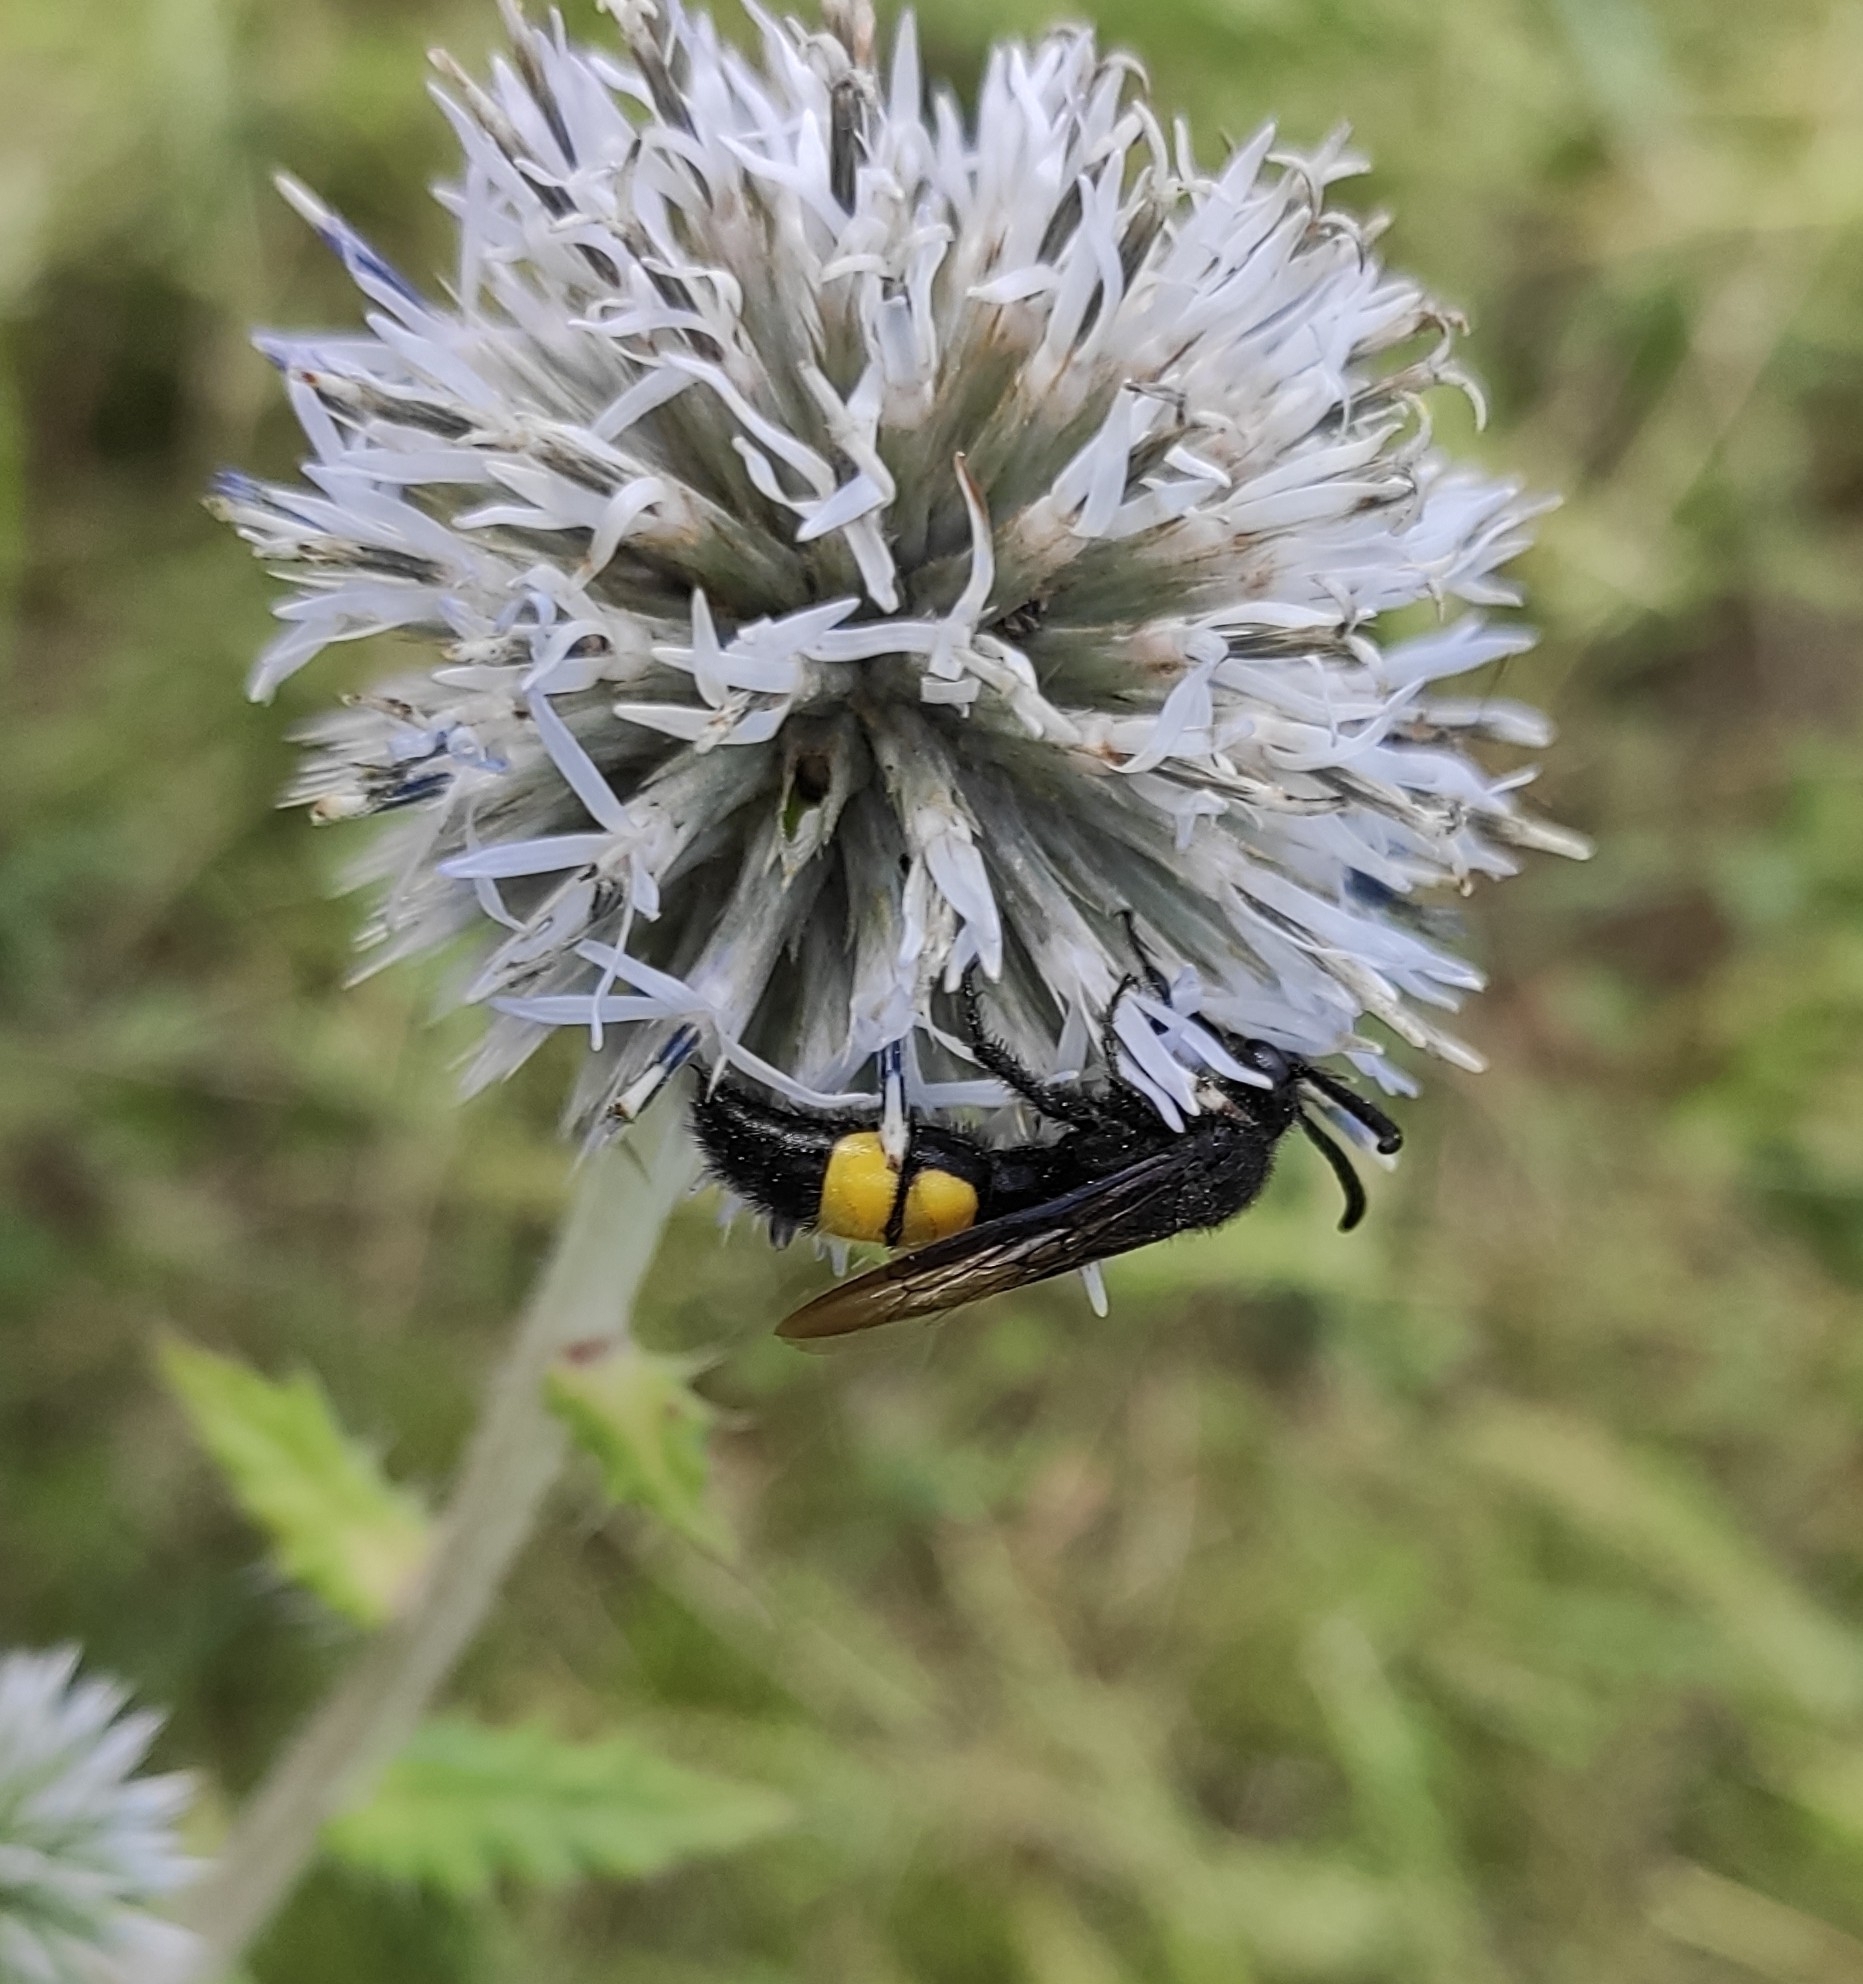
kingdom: Animalia
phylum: Arthropoda
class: Insecta
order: Hymenoptera
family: Scoliidae
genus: Scolia
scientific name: Scolia hirta
